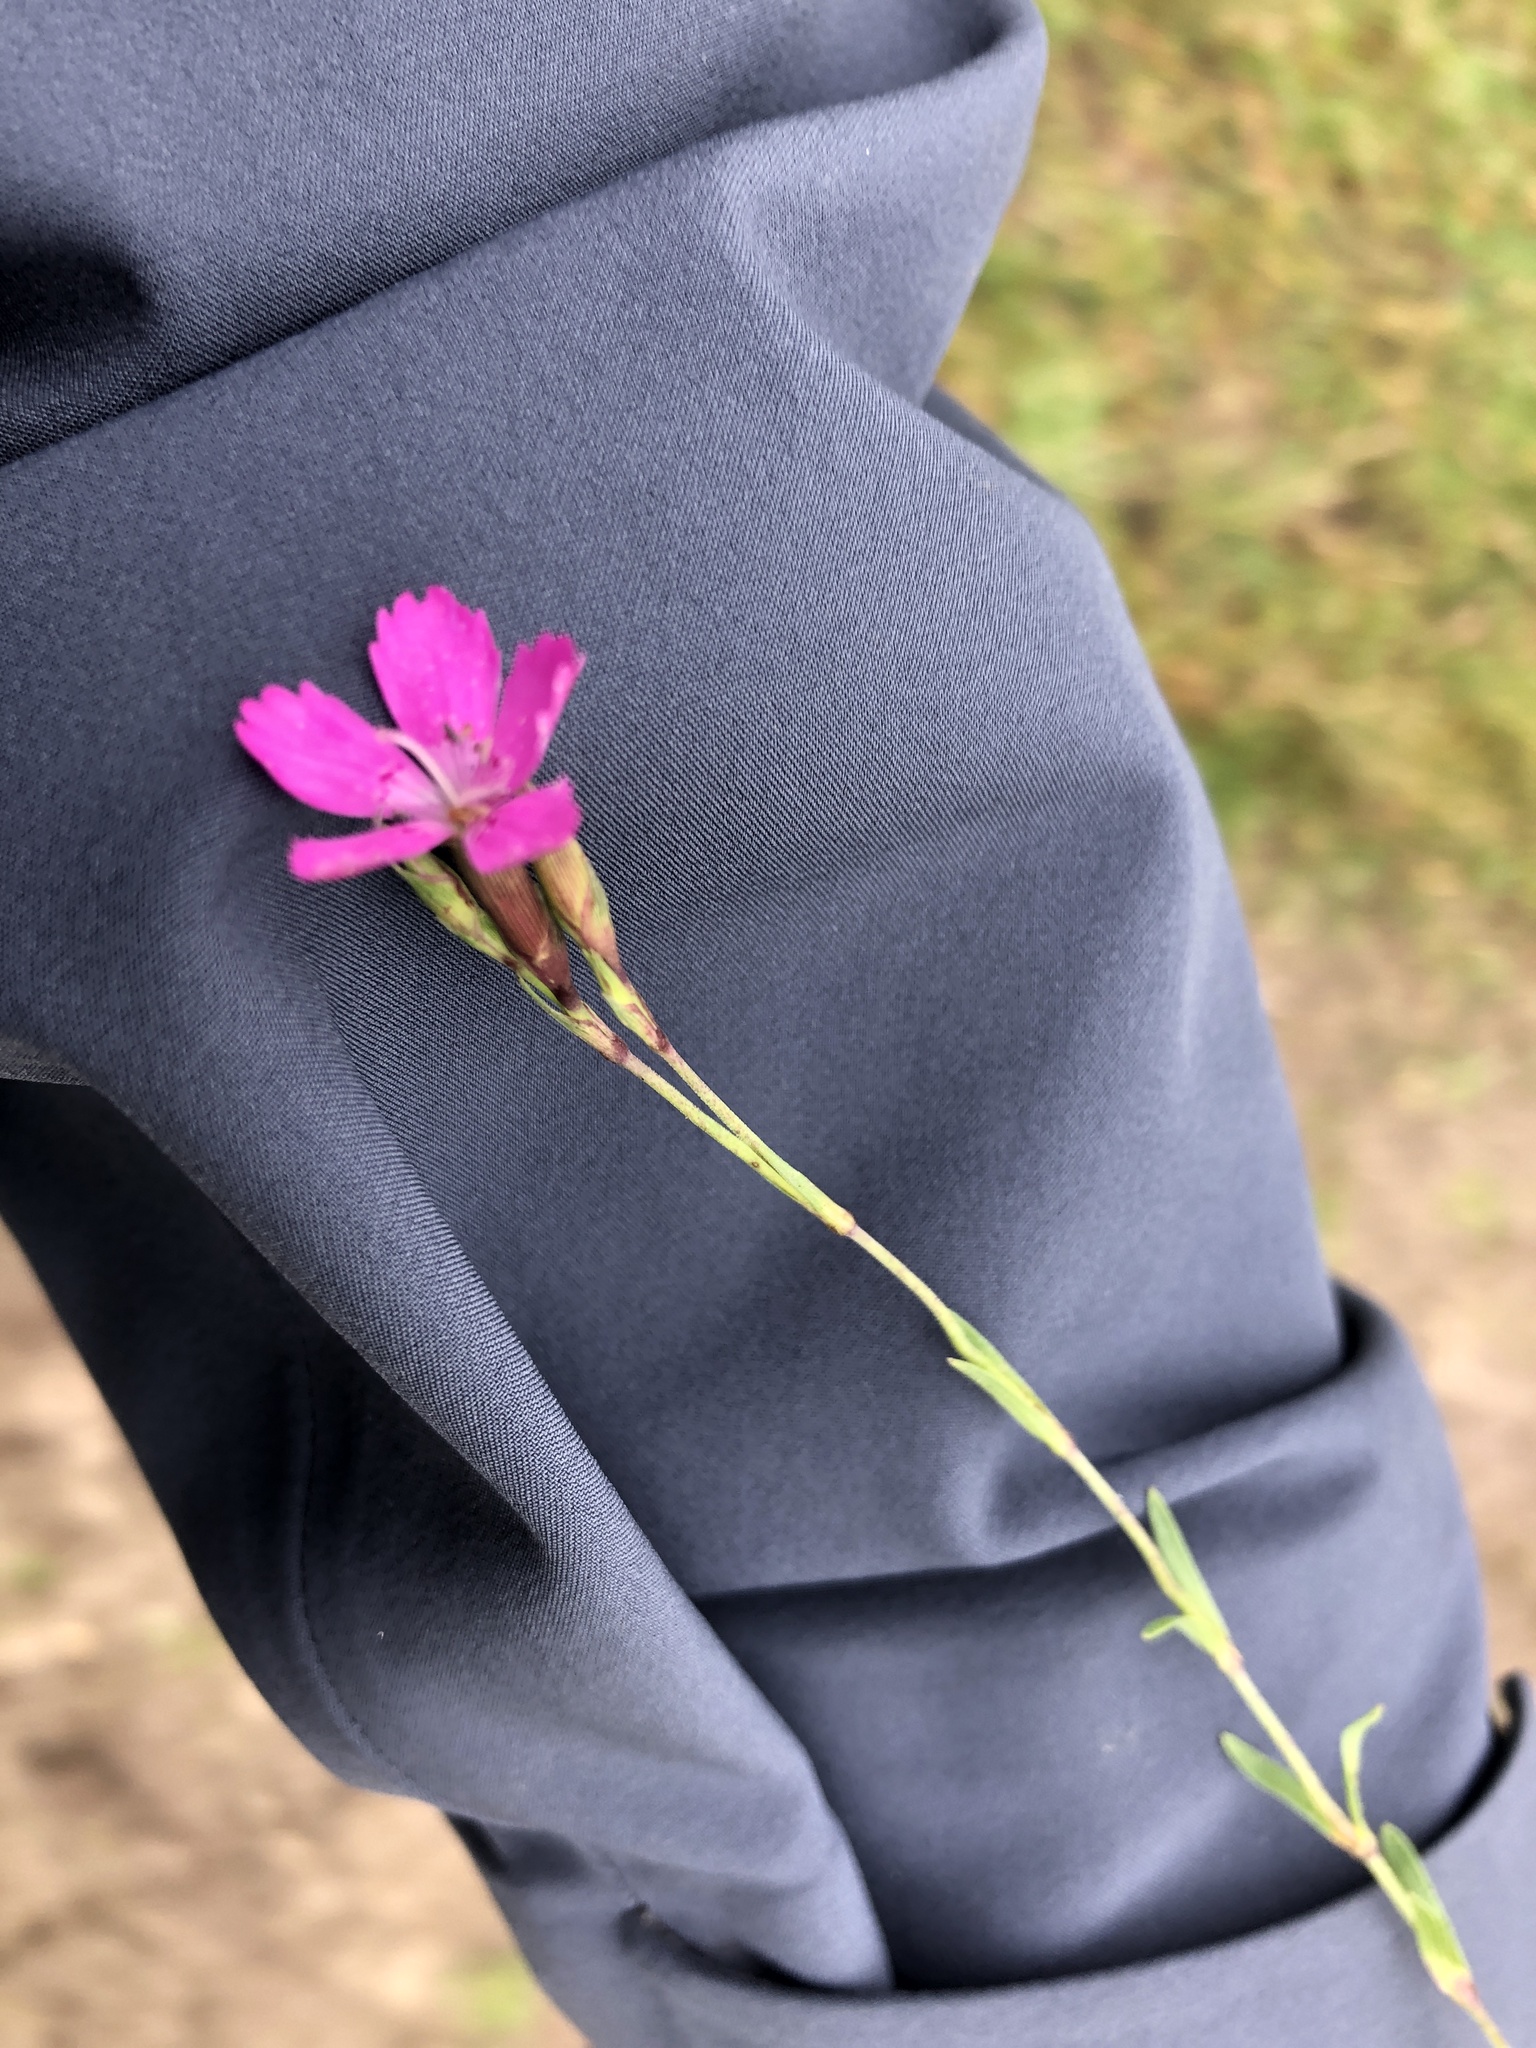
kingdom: Plantae
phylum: Tracheophyta
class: Magnoliopsida
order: Caryophyllales
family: Caryophyllaceae
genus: Dianthus
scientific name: Dianthus deltoides
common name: Maiden pink
